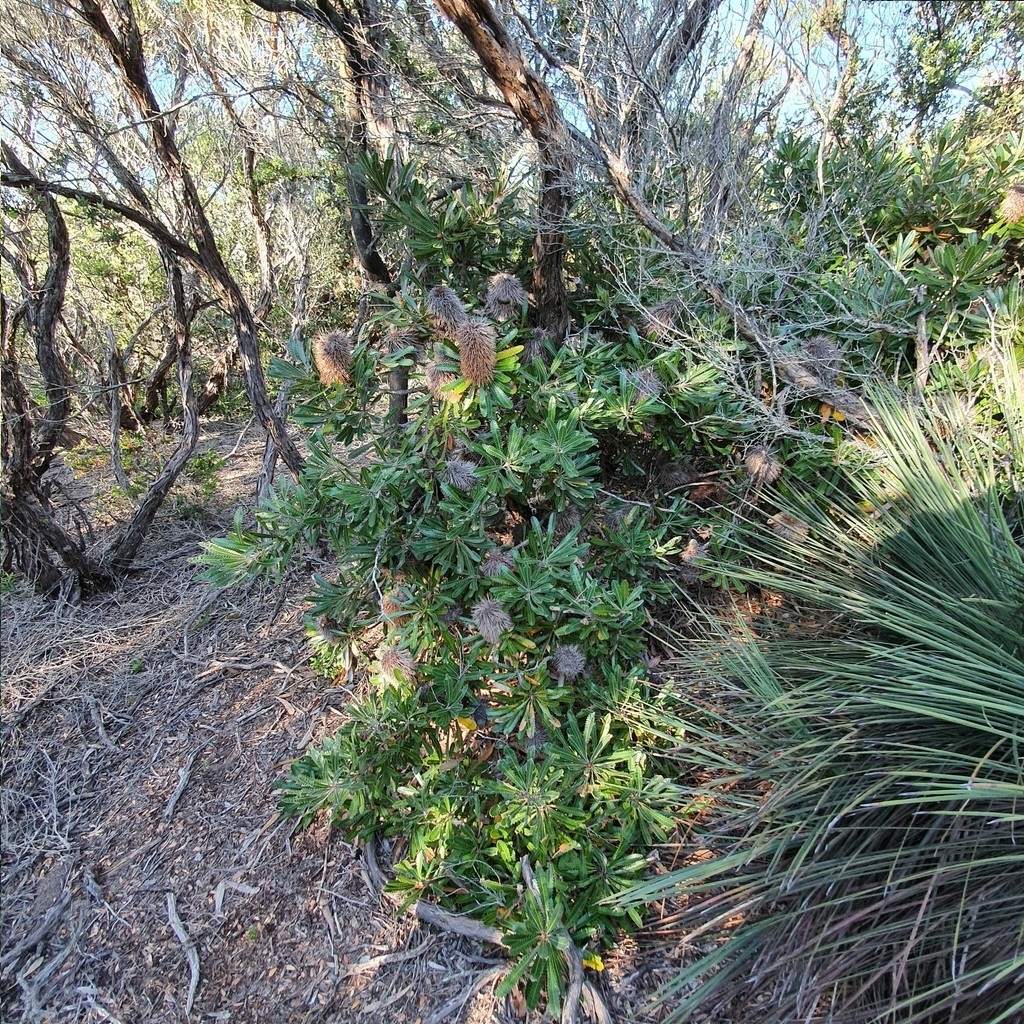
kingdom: Plantae
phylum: Tracheophyta
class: Magnoliopsida
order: Proteales
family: Proteaceae
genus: Banksia
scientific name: Banksia aemula
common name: Wallum banksia
